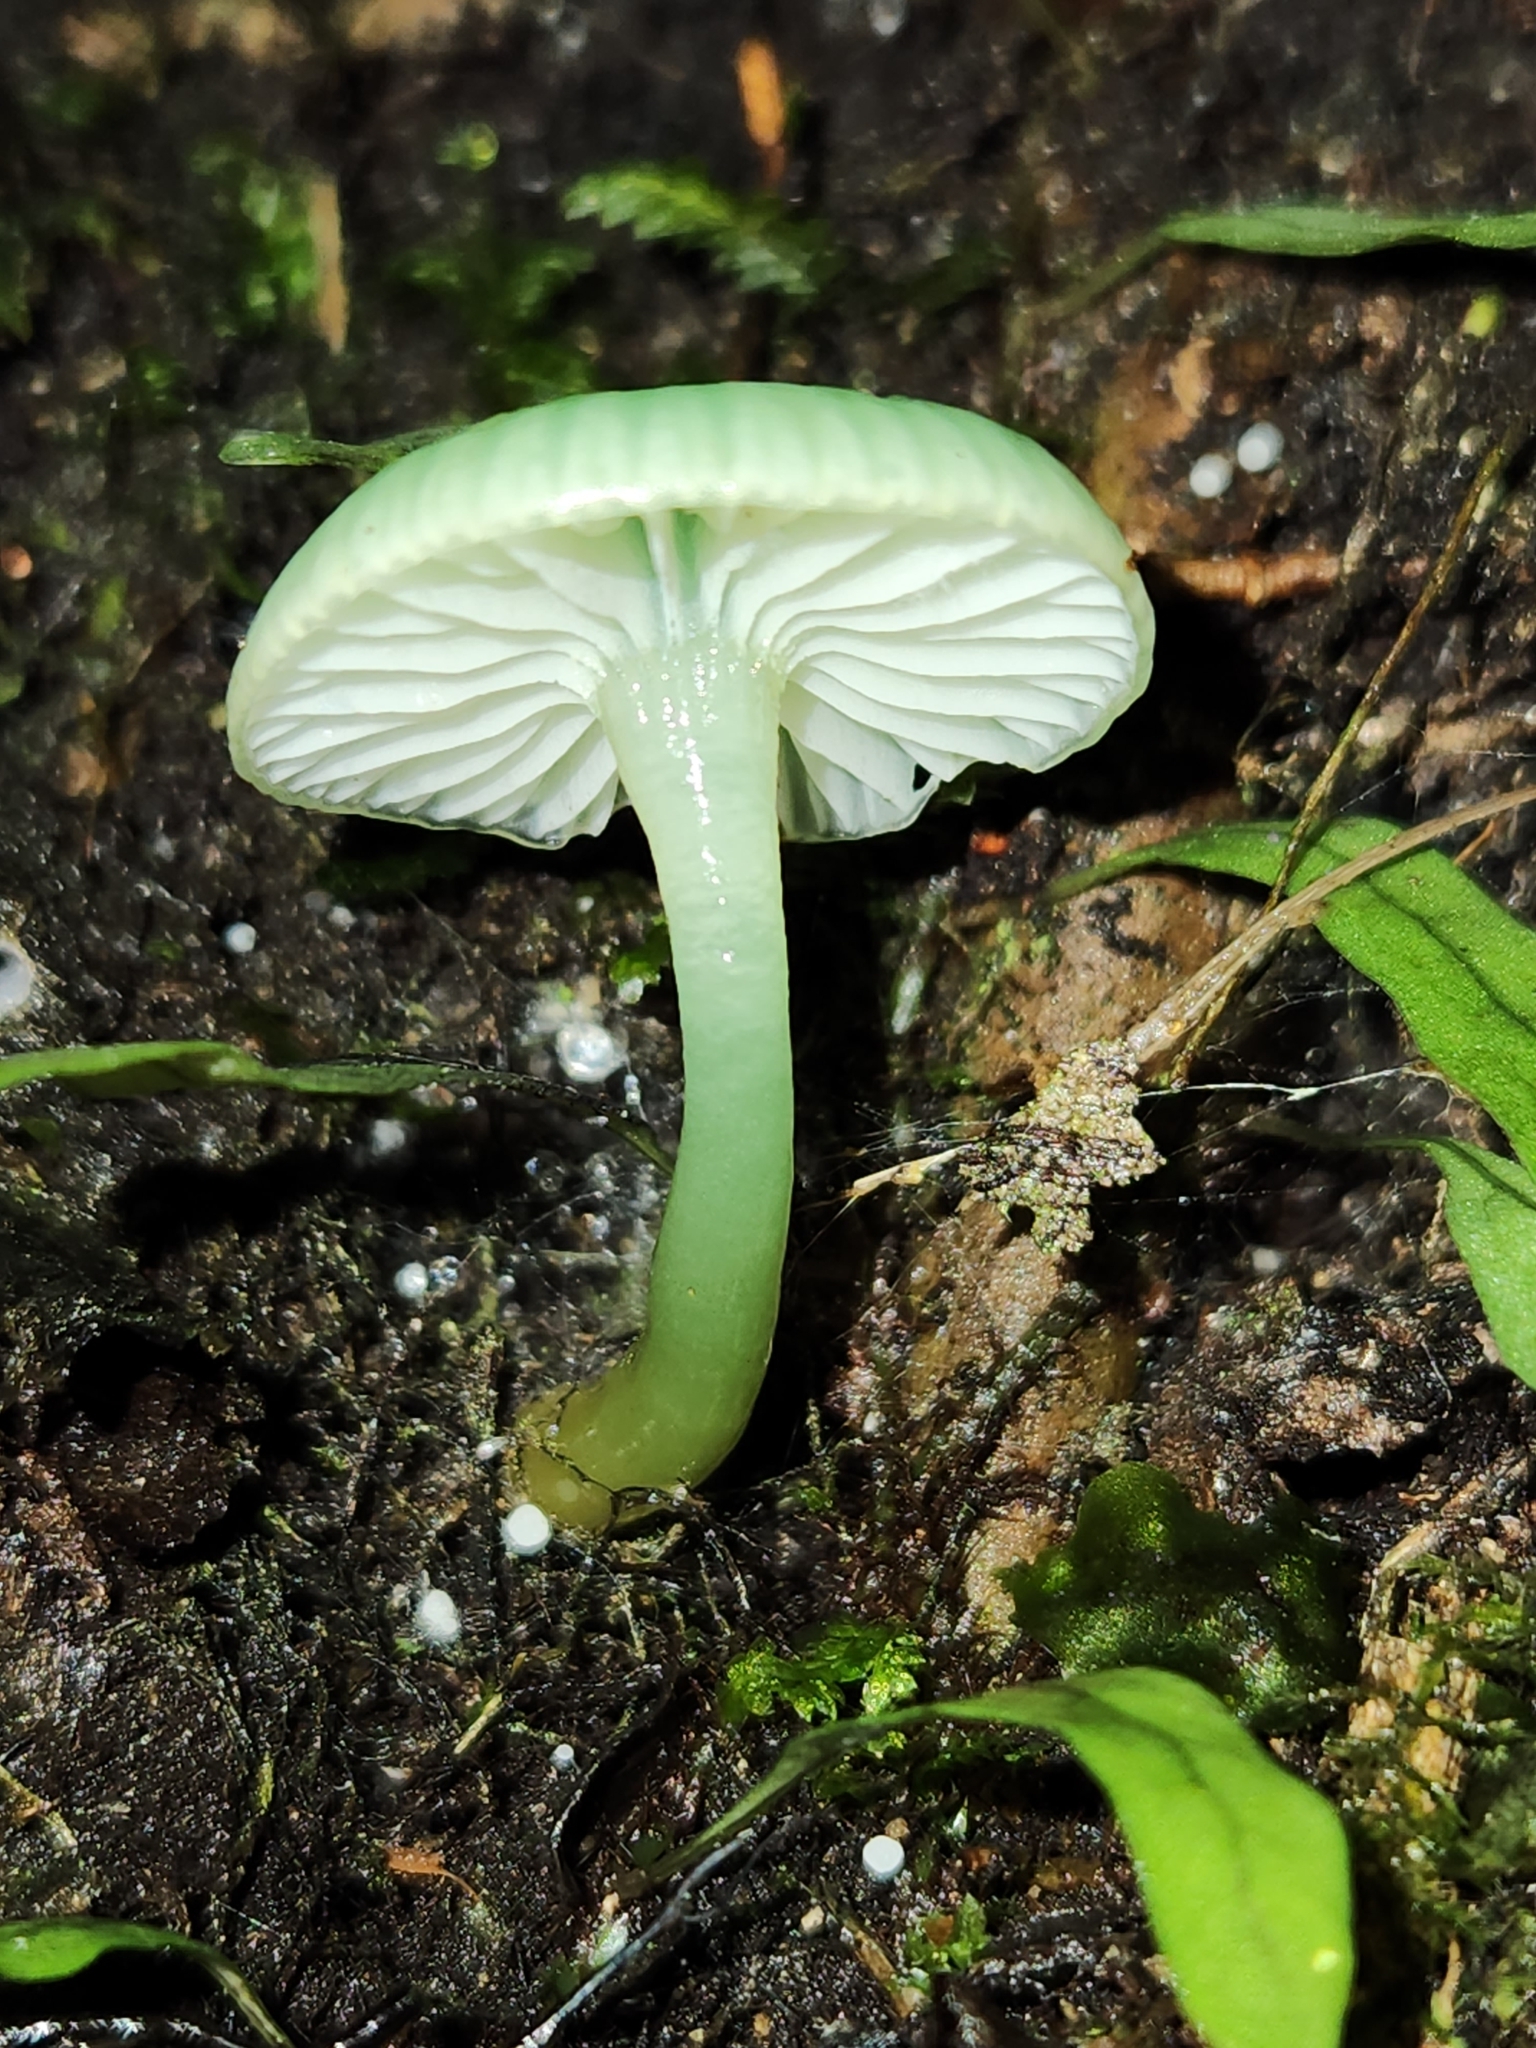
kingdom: Fungi
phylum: Basidiomycota
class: Agaricomycetes
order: Agaricales
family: Hygrophoraceae
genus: Gliophorus
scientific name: Gliophorus viridis
